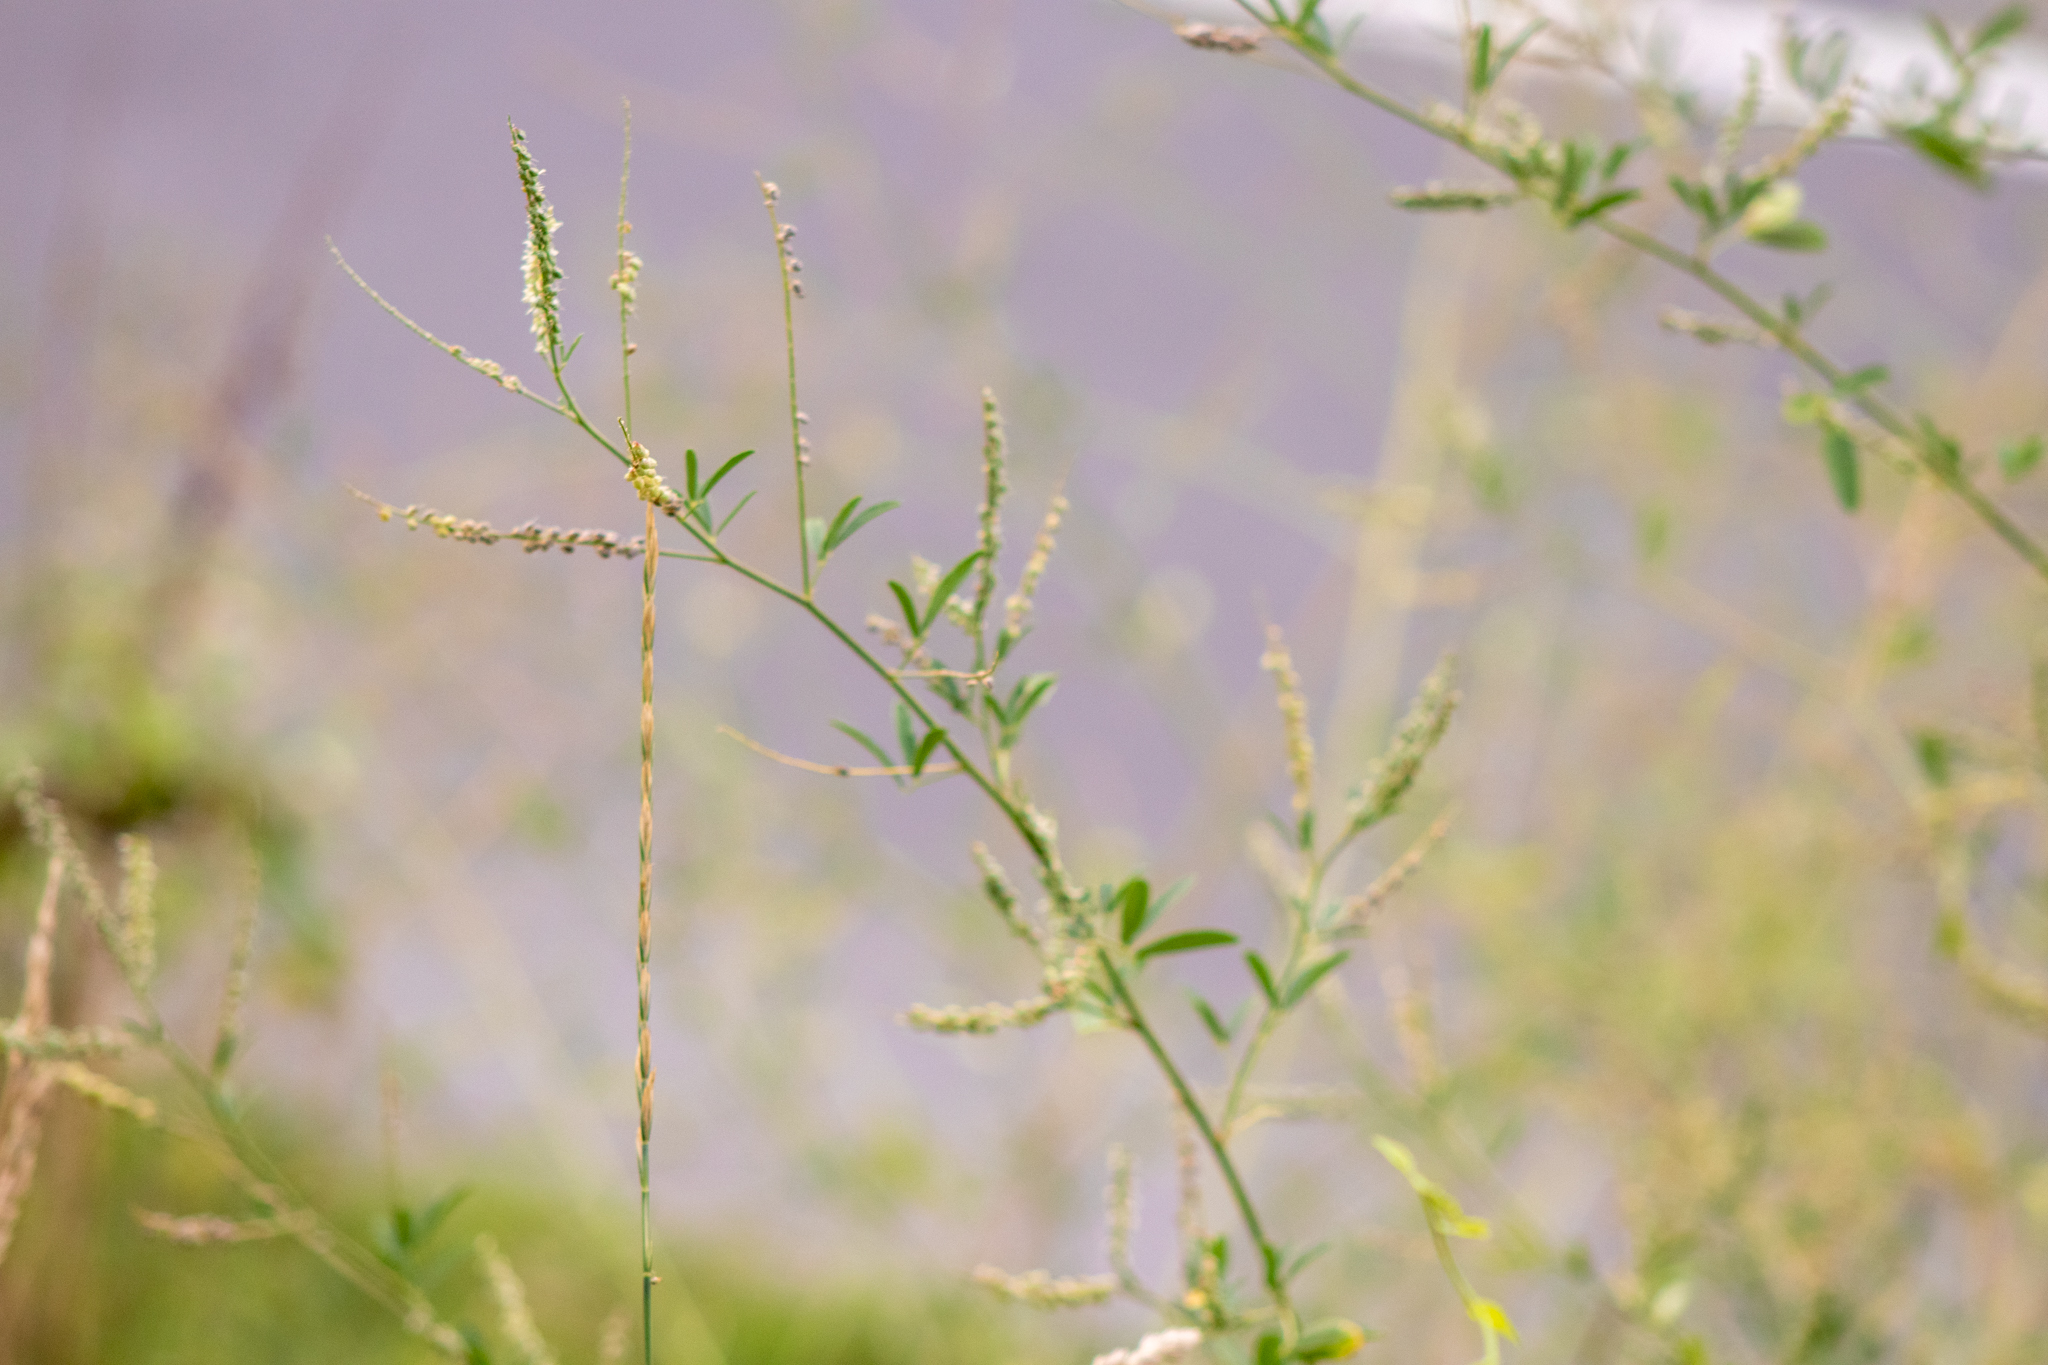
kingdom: Plantae
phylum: Tracheophyta
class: Magnoliopsida
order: Fabales
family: Fabaceae
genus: Melilotus
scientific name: Melilotus albus
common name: White melilot
